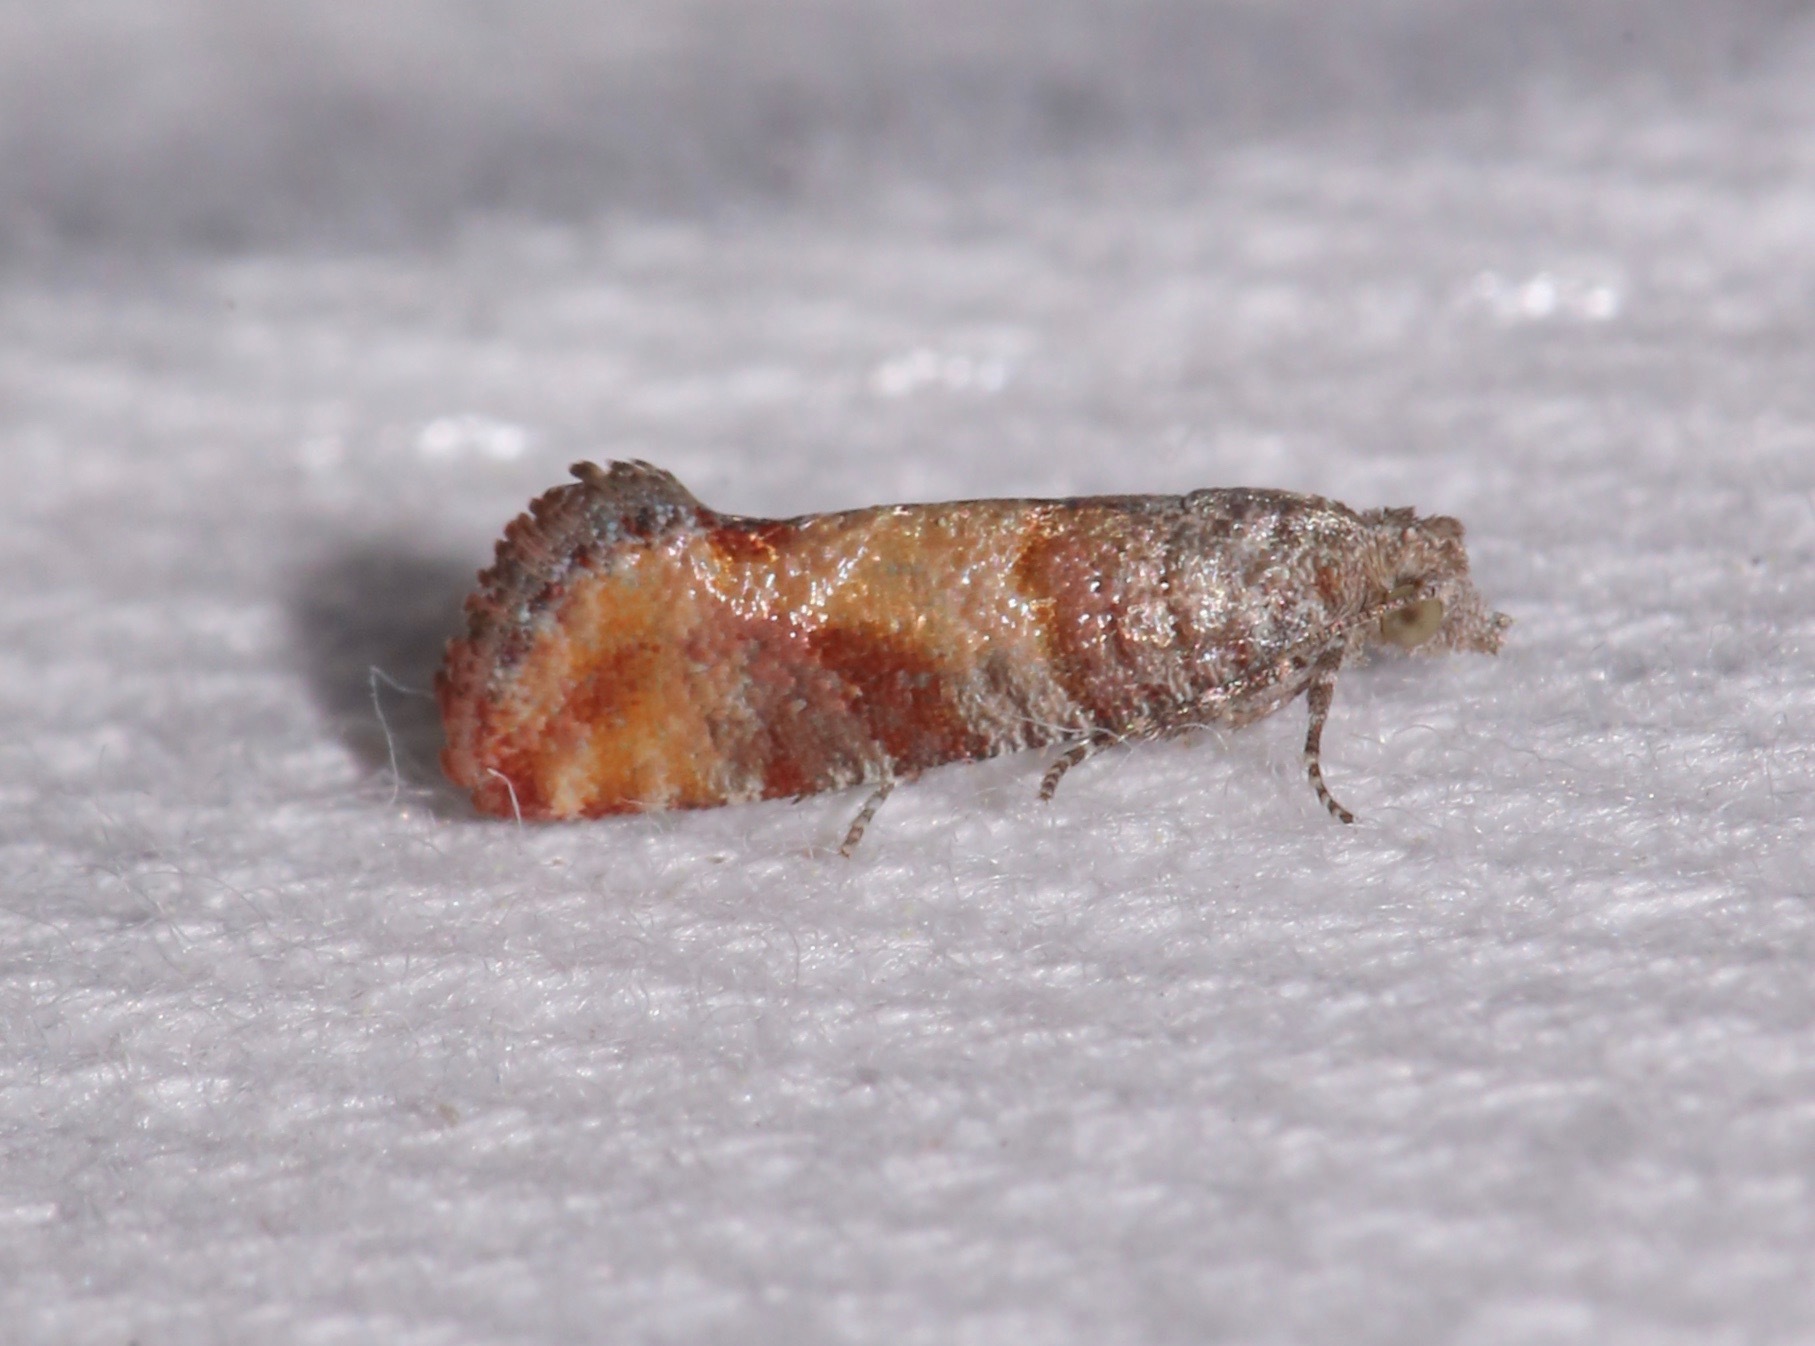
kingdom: Animalia
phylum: Arthropoda
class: Insecta
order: Lepidoptera
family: Tortricidae
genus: Rhyacionia
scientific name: Rhyacionia frustrana
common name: Nantucket pine tip moth
